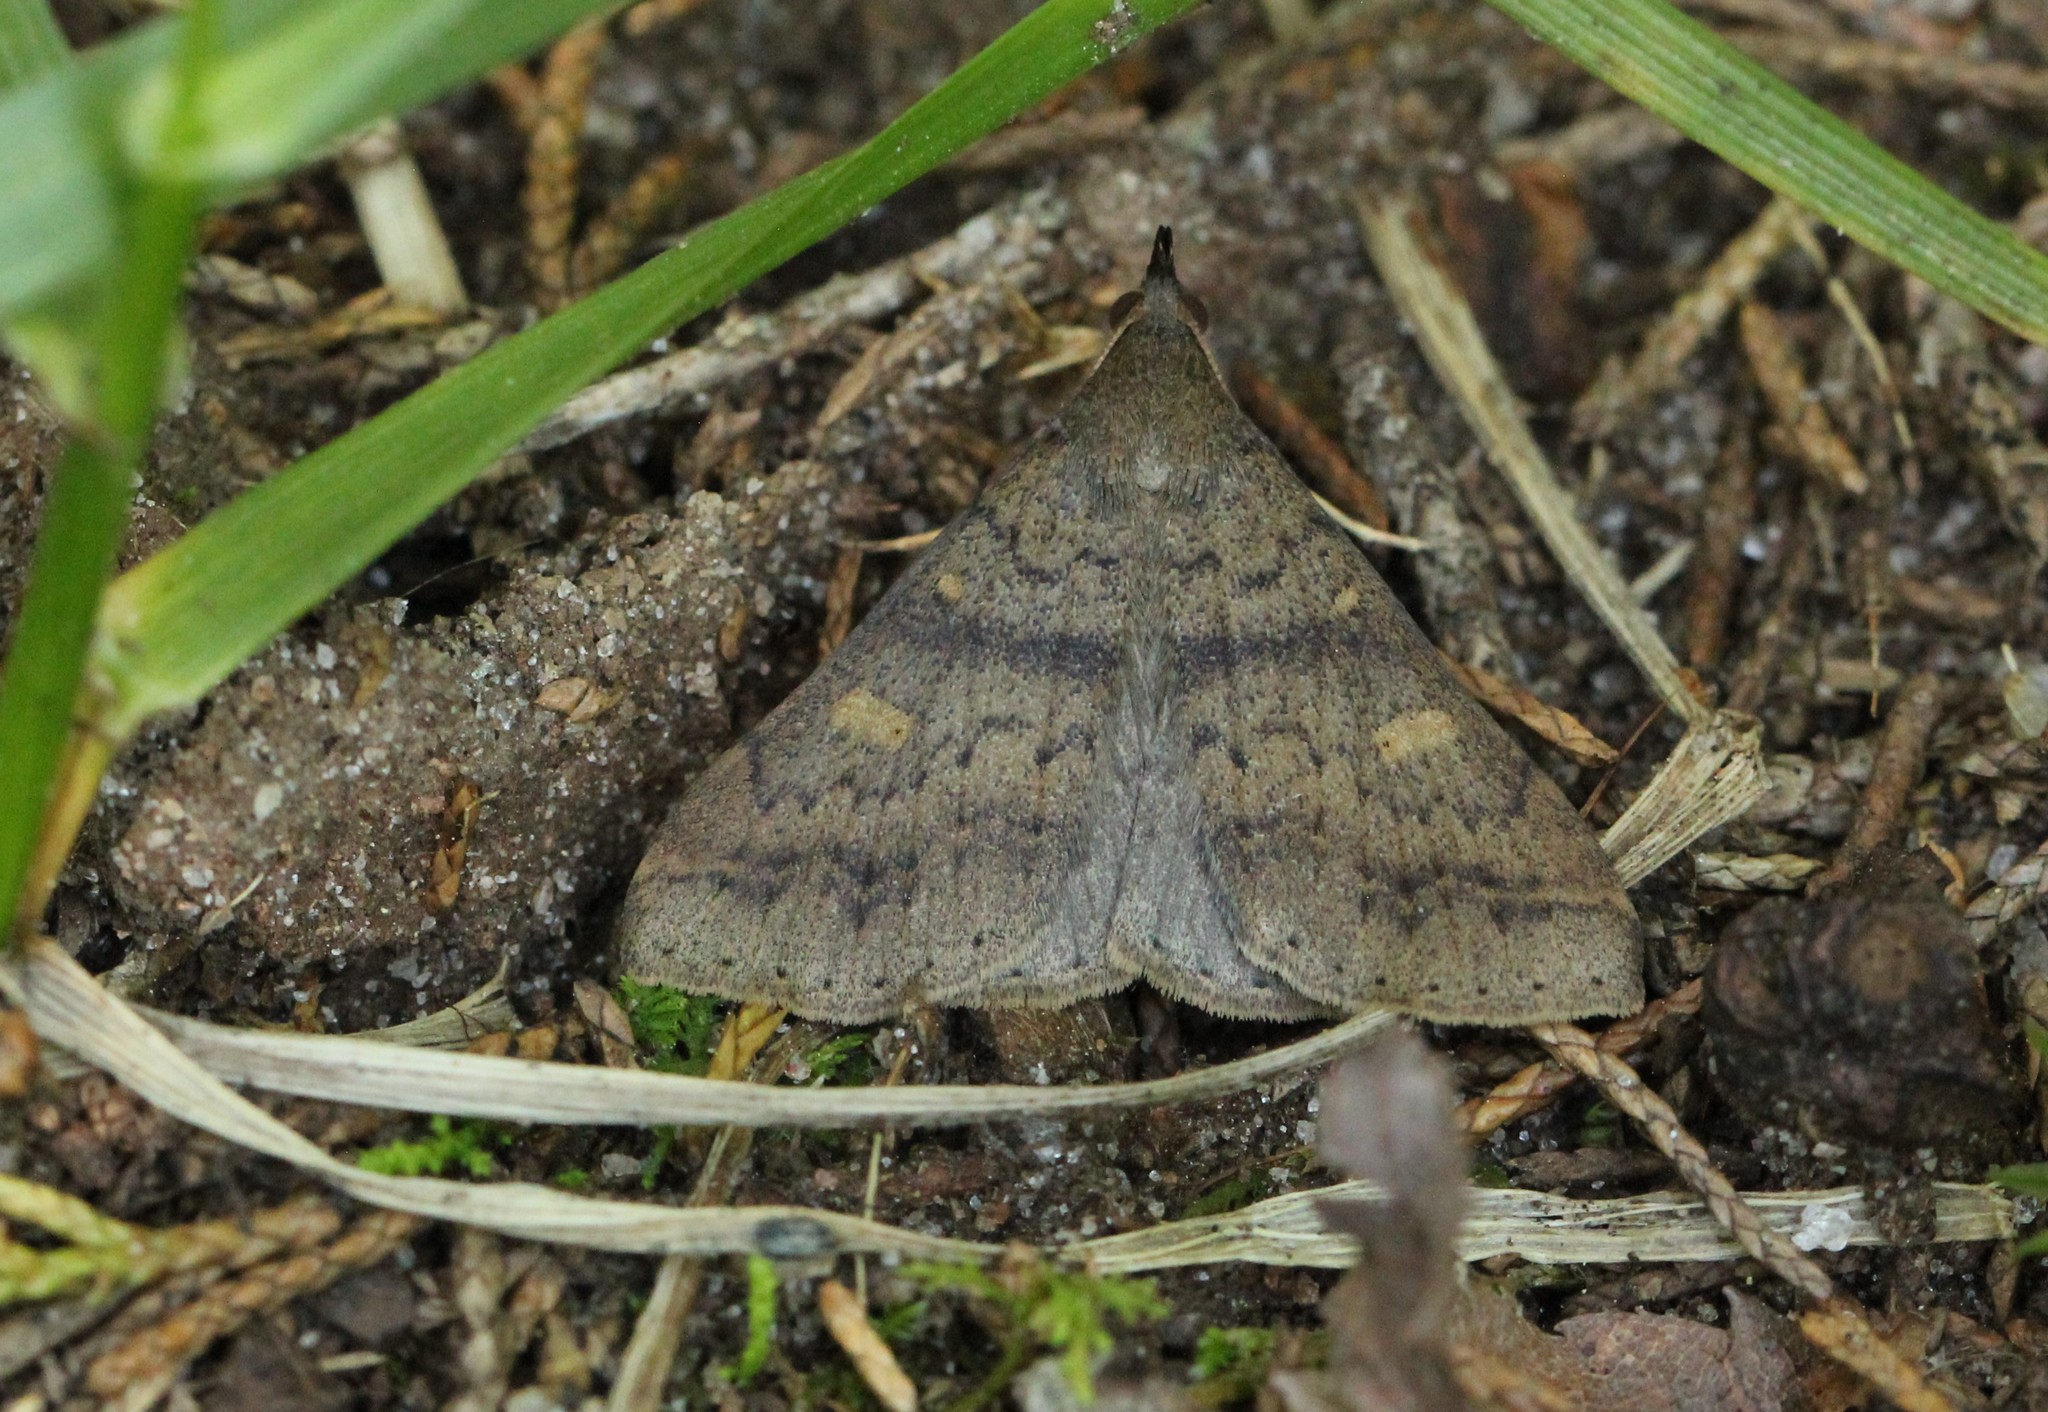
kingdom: Animalia
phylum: Arthropoda
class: Insecta
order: Lepidoptera
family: Erebidae
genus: Renia
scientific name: Renia discoloralis
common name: Discolored renia moth
